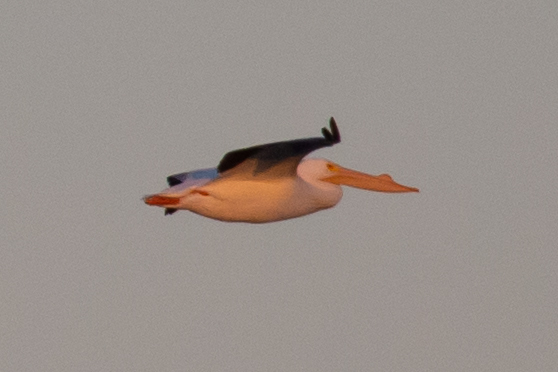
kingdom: Animalia
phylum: Chordata
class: Aves
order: Pelecaniformes
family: Pelecanidae
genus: Pelecanus
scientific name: Pelecanus erythrorhynchos
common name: American white pelican
